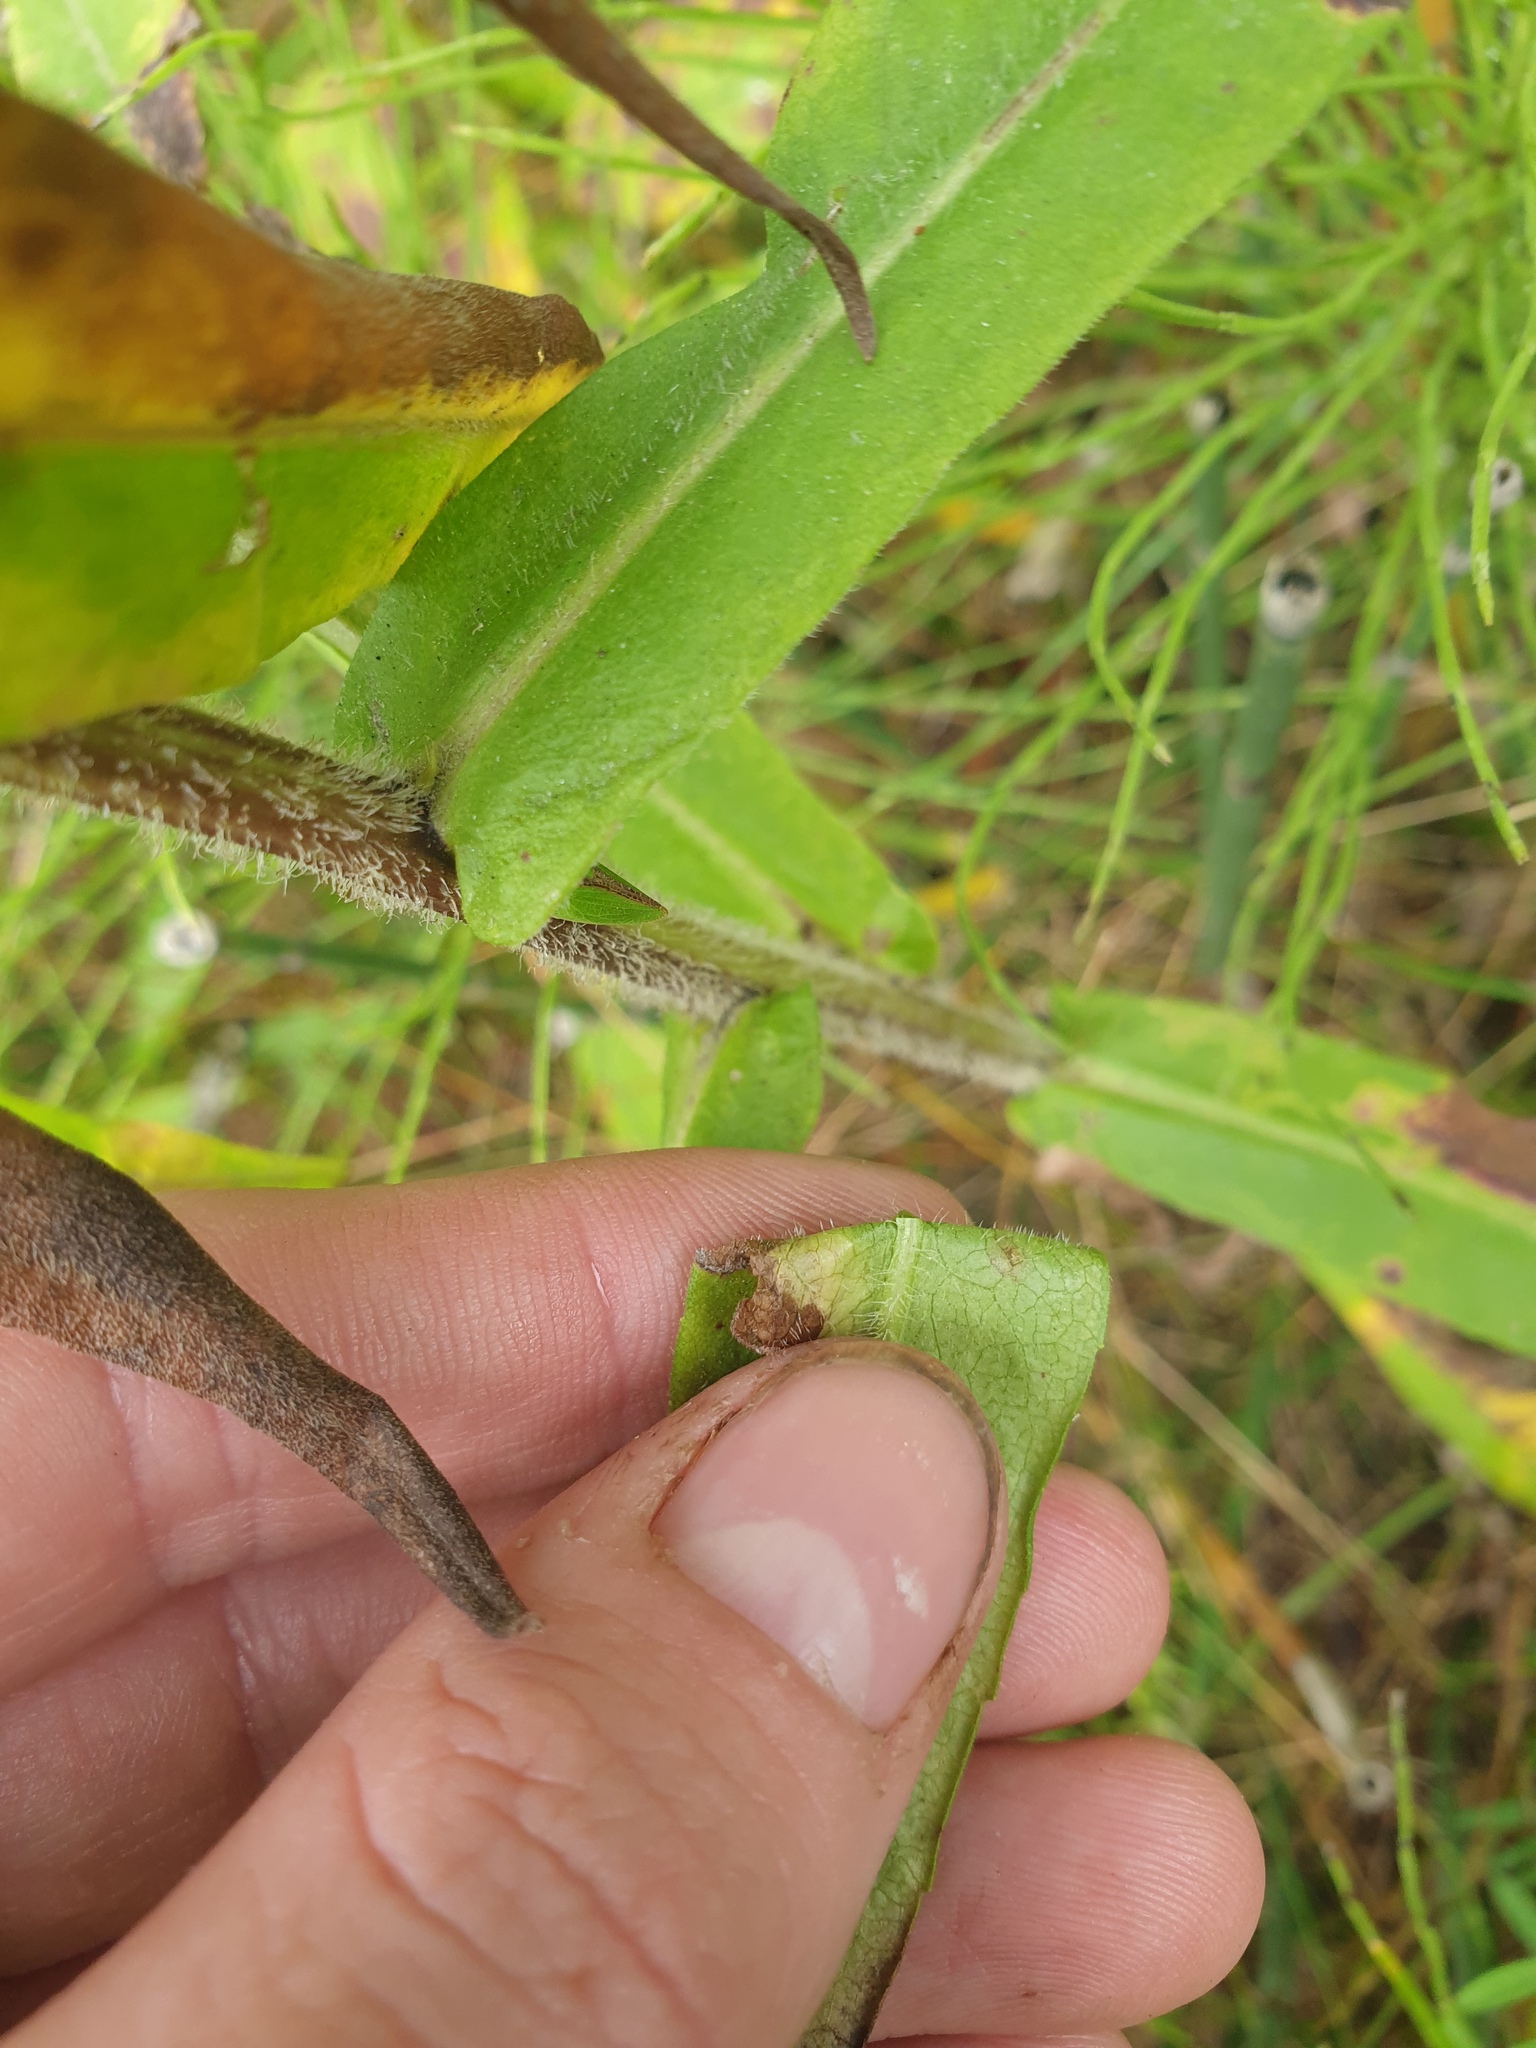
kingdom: Plantae
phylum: Tracheophyta
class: Magnoliopsida
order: Asterales
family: Asteraceae
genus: Symphyotrichum
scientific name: Symphyotrichum puniceum
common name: Bog aster
